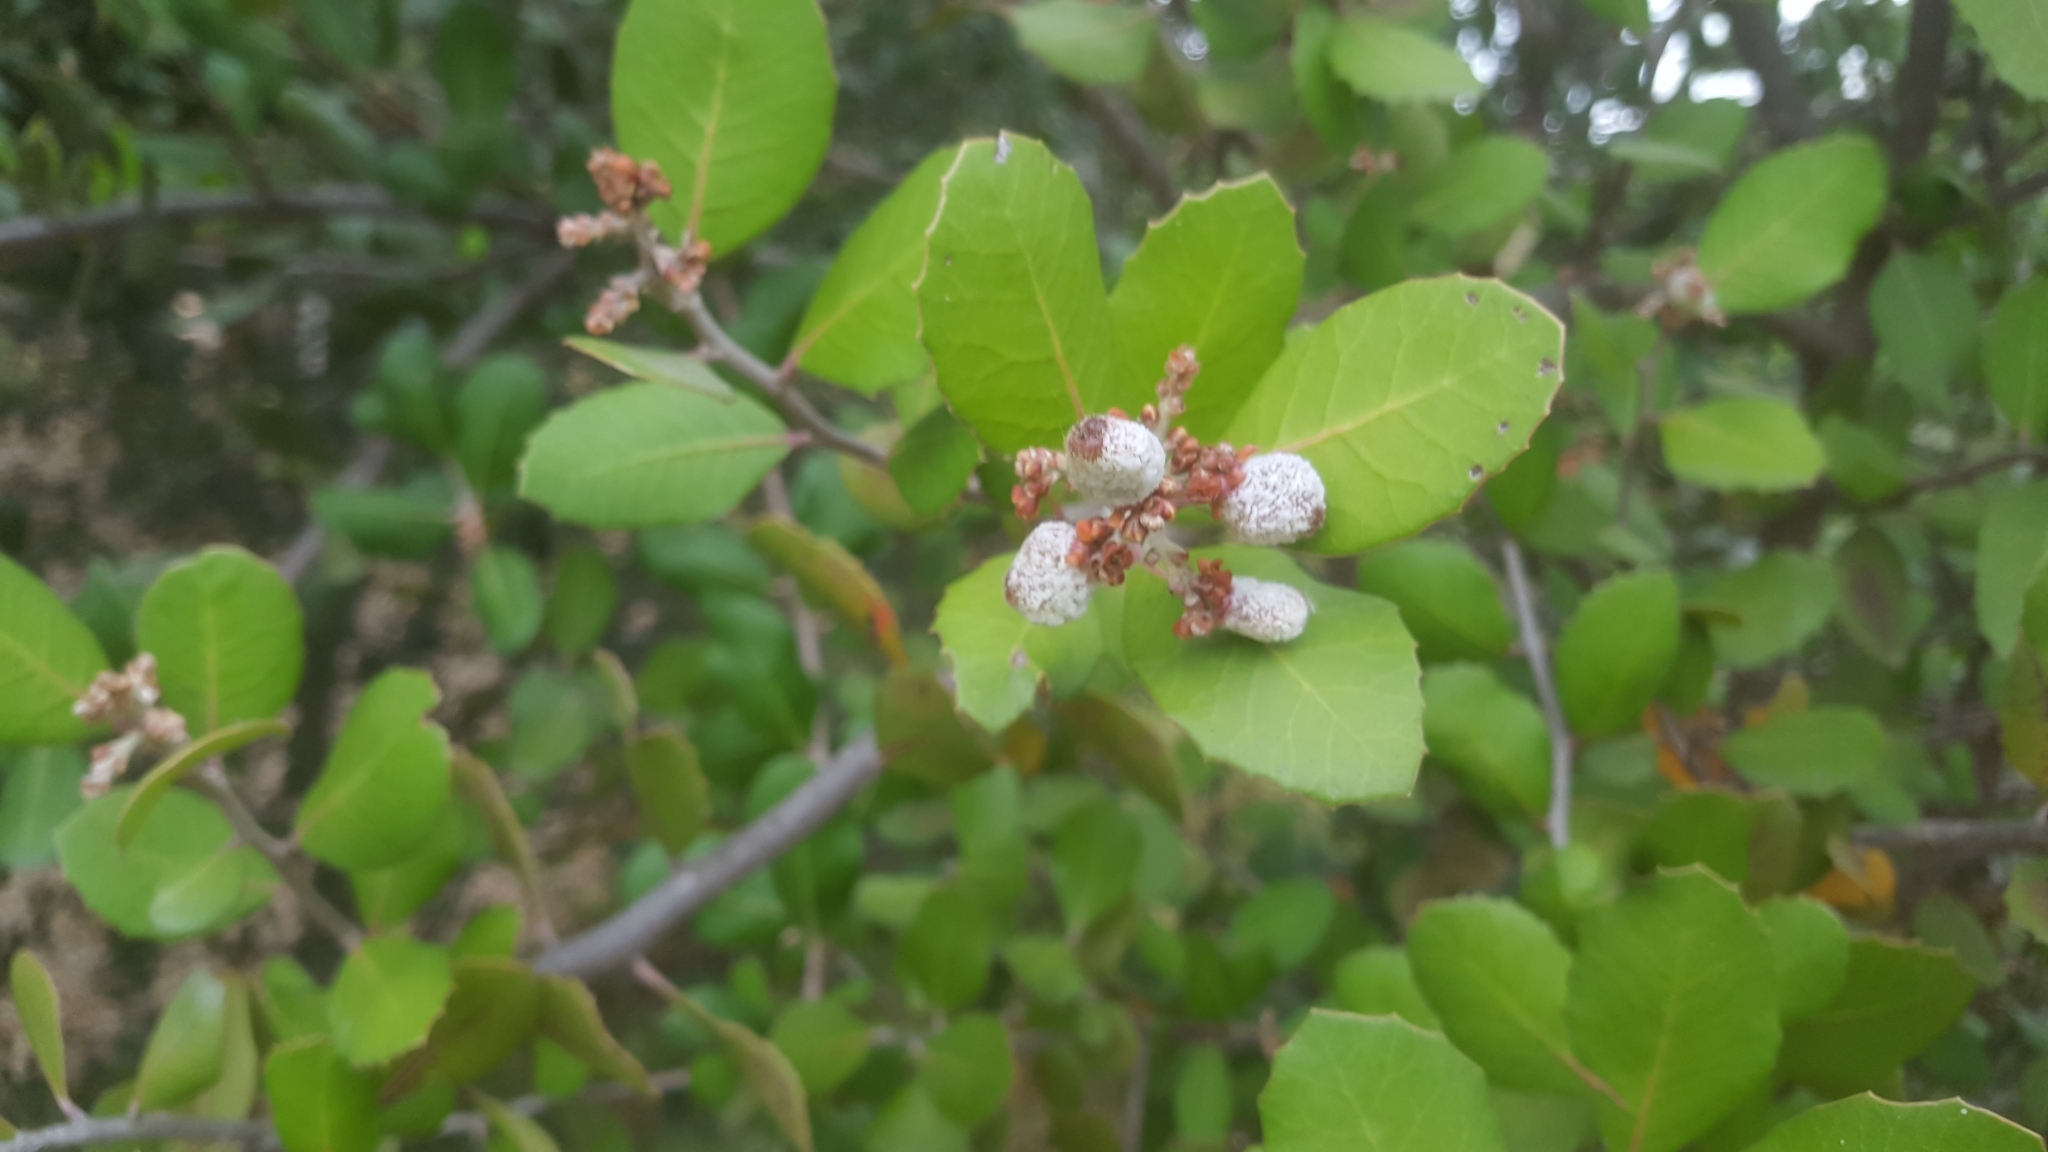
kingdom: Plantae
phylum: Tracheophyta
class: Magnoliopsida
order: Sapindales
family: Anacardiaceae
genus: Rhus
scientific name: Rhus integrifolia
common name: Lemonade sumac
